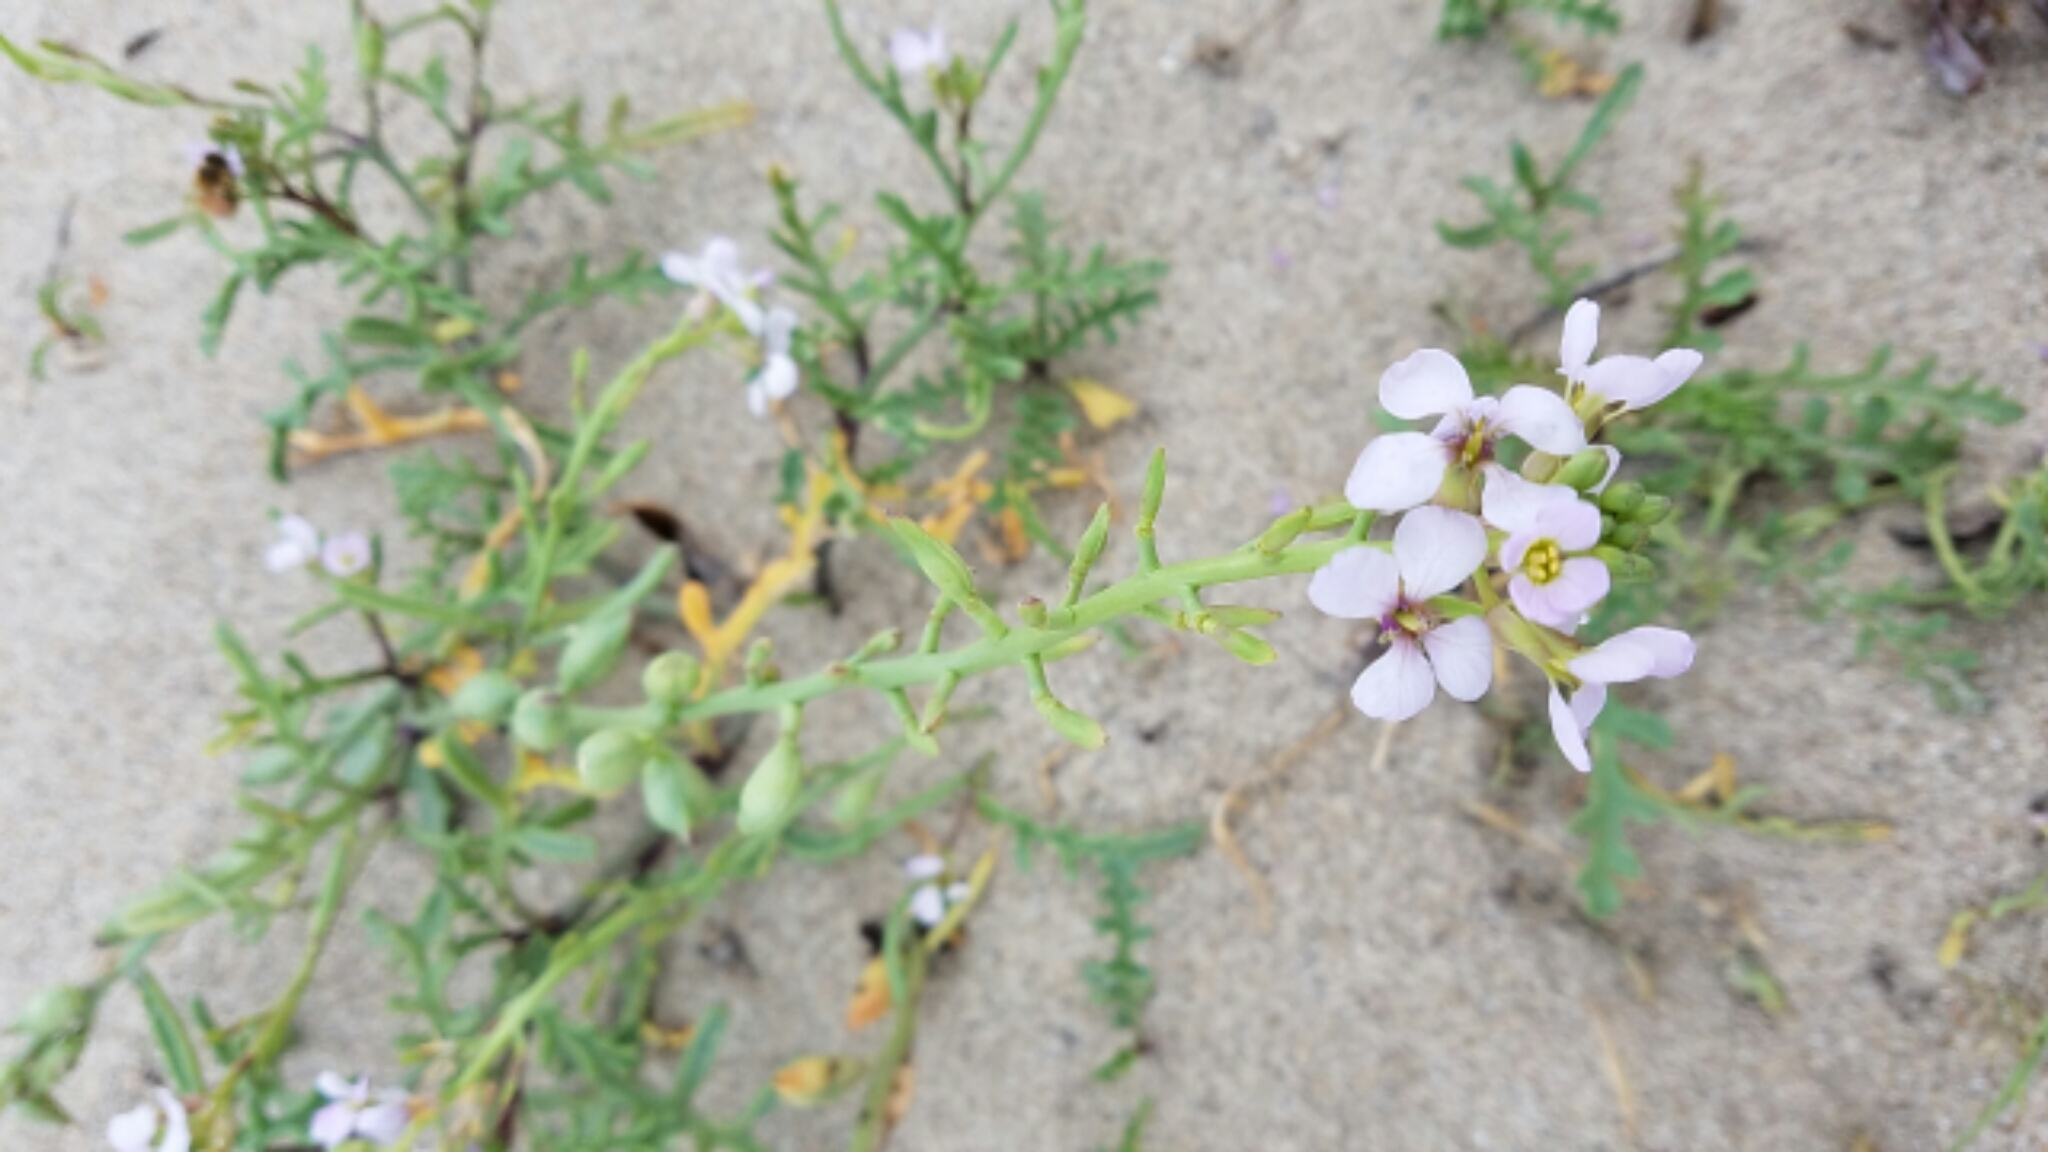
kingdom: Plantae
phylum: Tracheophyta
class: Magnoliopsida
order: Brassicales
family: Brassicaceae
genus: Cakile
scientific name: Cakile maritima
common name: Sea rocket
